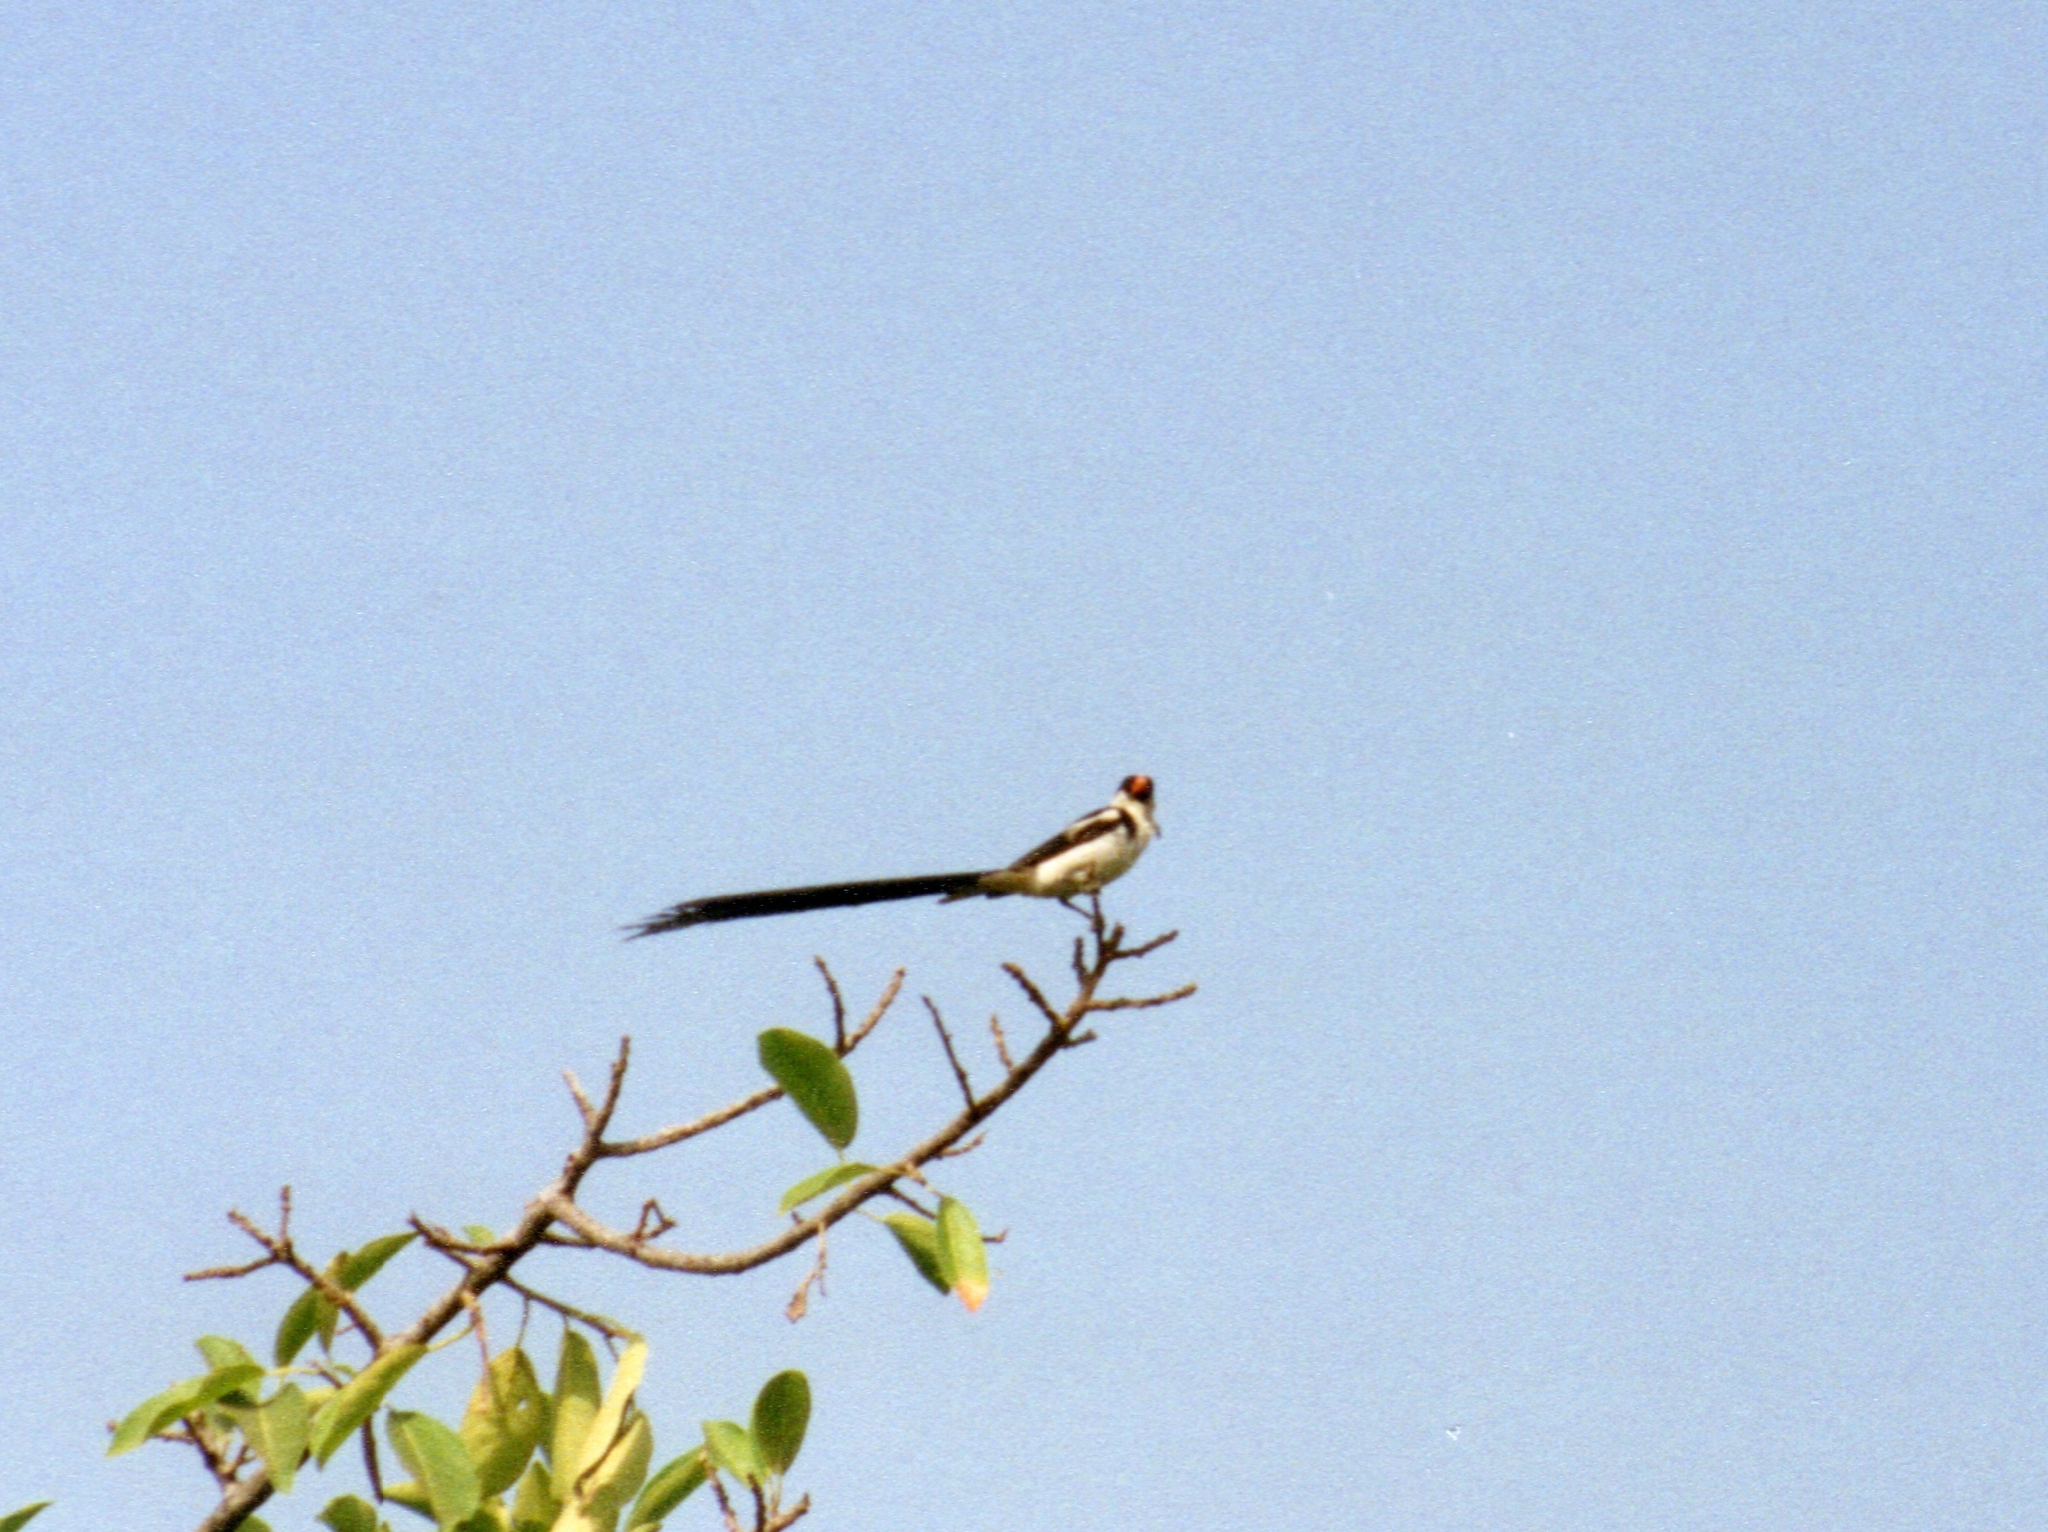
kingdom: Animalia
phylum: Chordata
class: Aves
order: Passeriformes
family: Viduidae
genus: Vidua
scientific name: Vidua macroura
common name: Pin-tailed whydah
